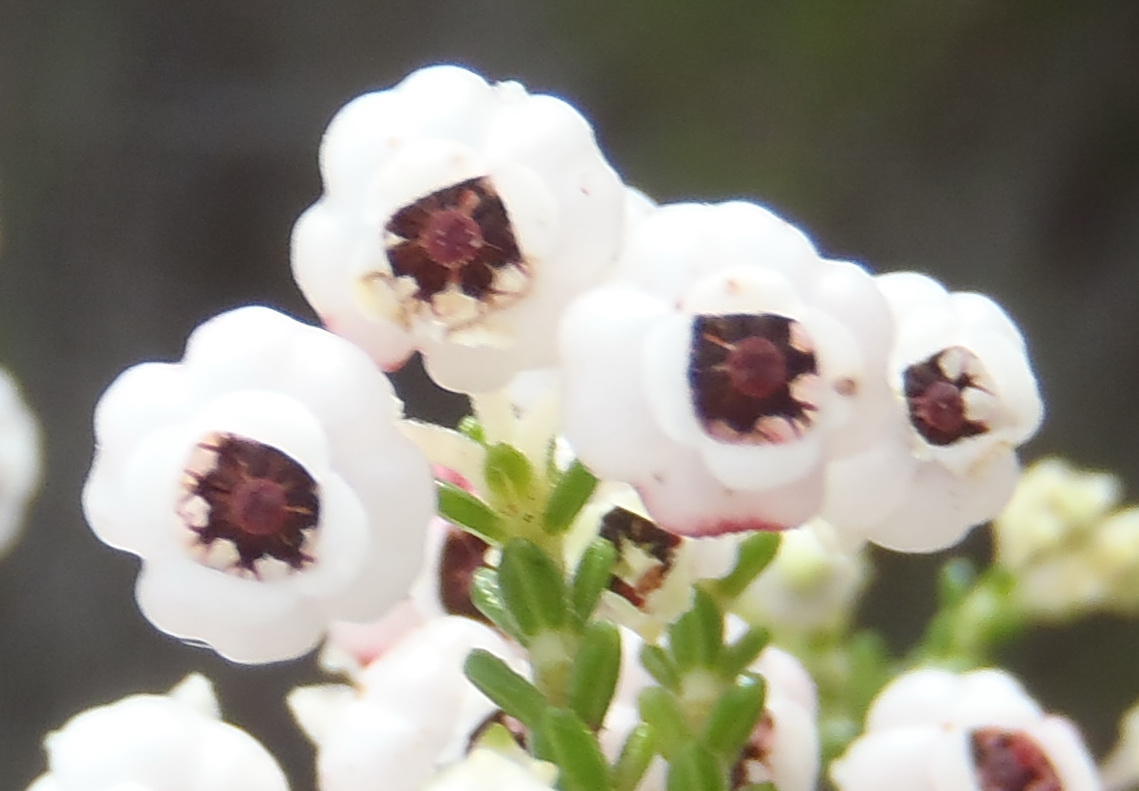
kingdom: Plantae
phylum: Tracheophyta
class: Magnoliopsida
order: Ericales
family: Ericaceae
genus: Erica
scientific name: Erica formosa
